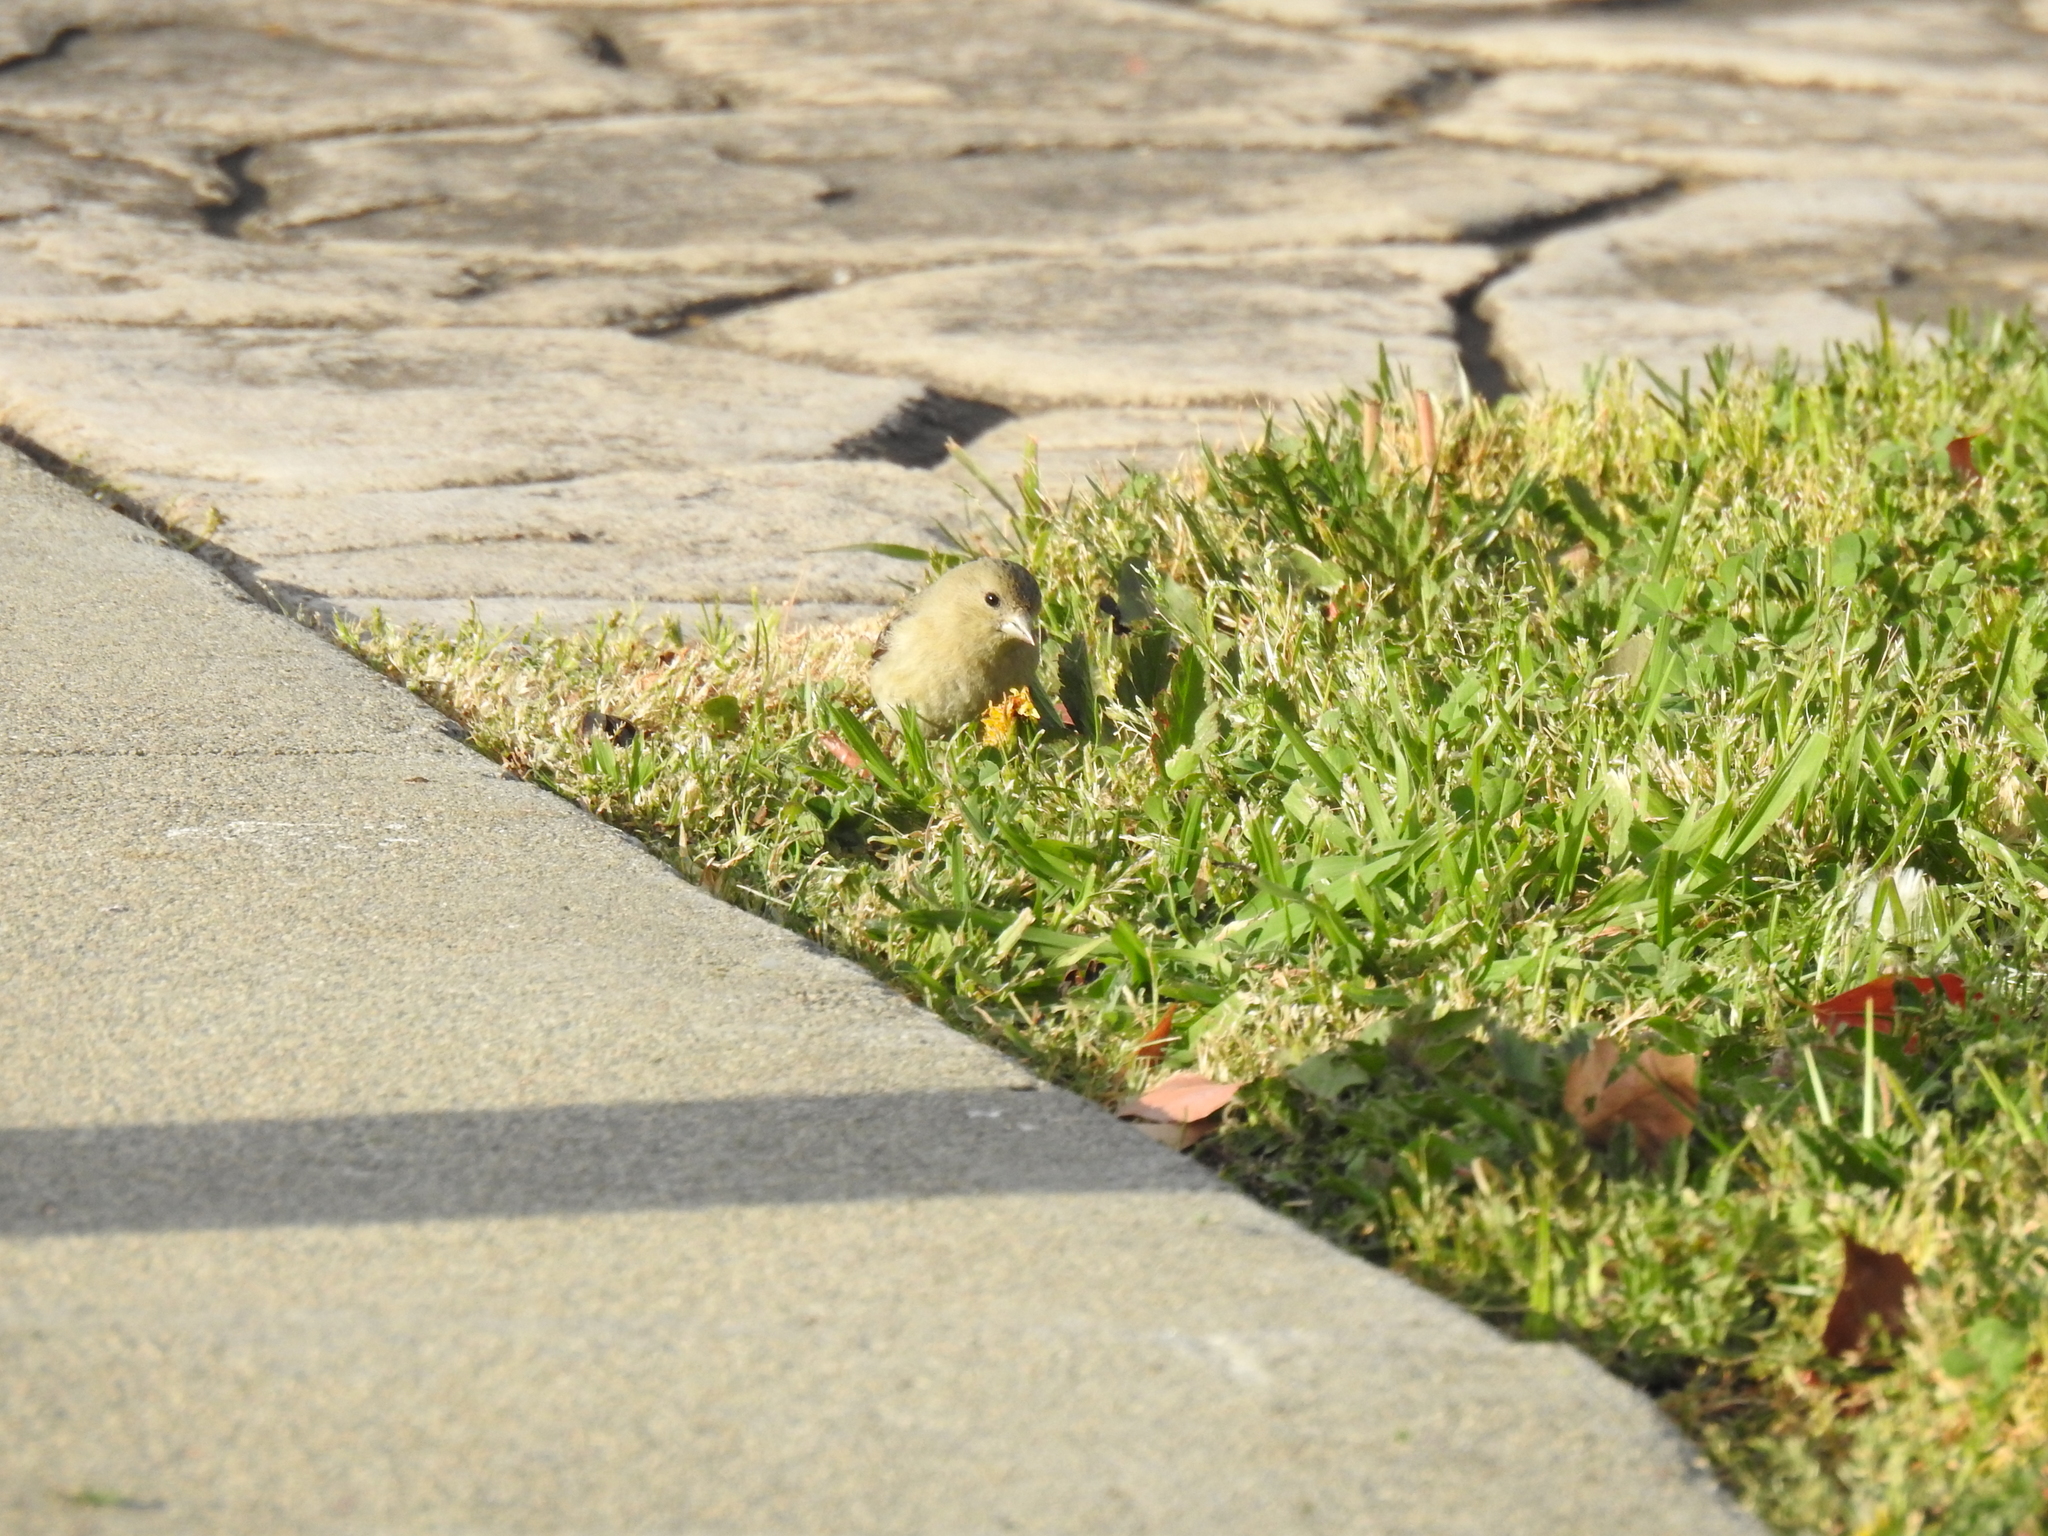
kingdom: Animalia
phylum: Chordata
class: Aves
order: Passeriformes
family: Fringillidae
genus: Spinus
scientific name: Spinus psaltria
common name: Lesser goldfinch
